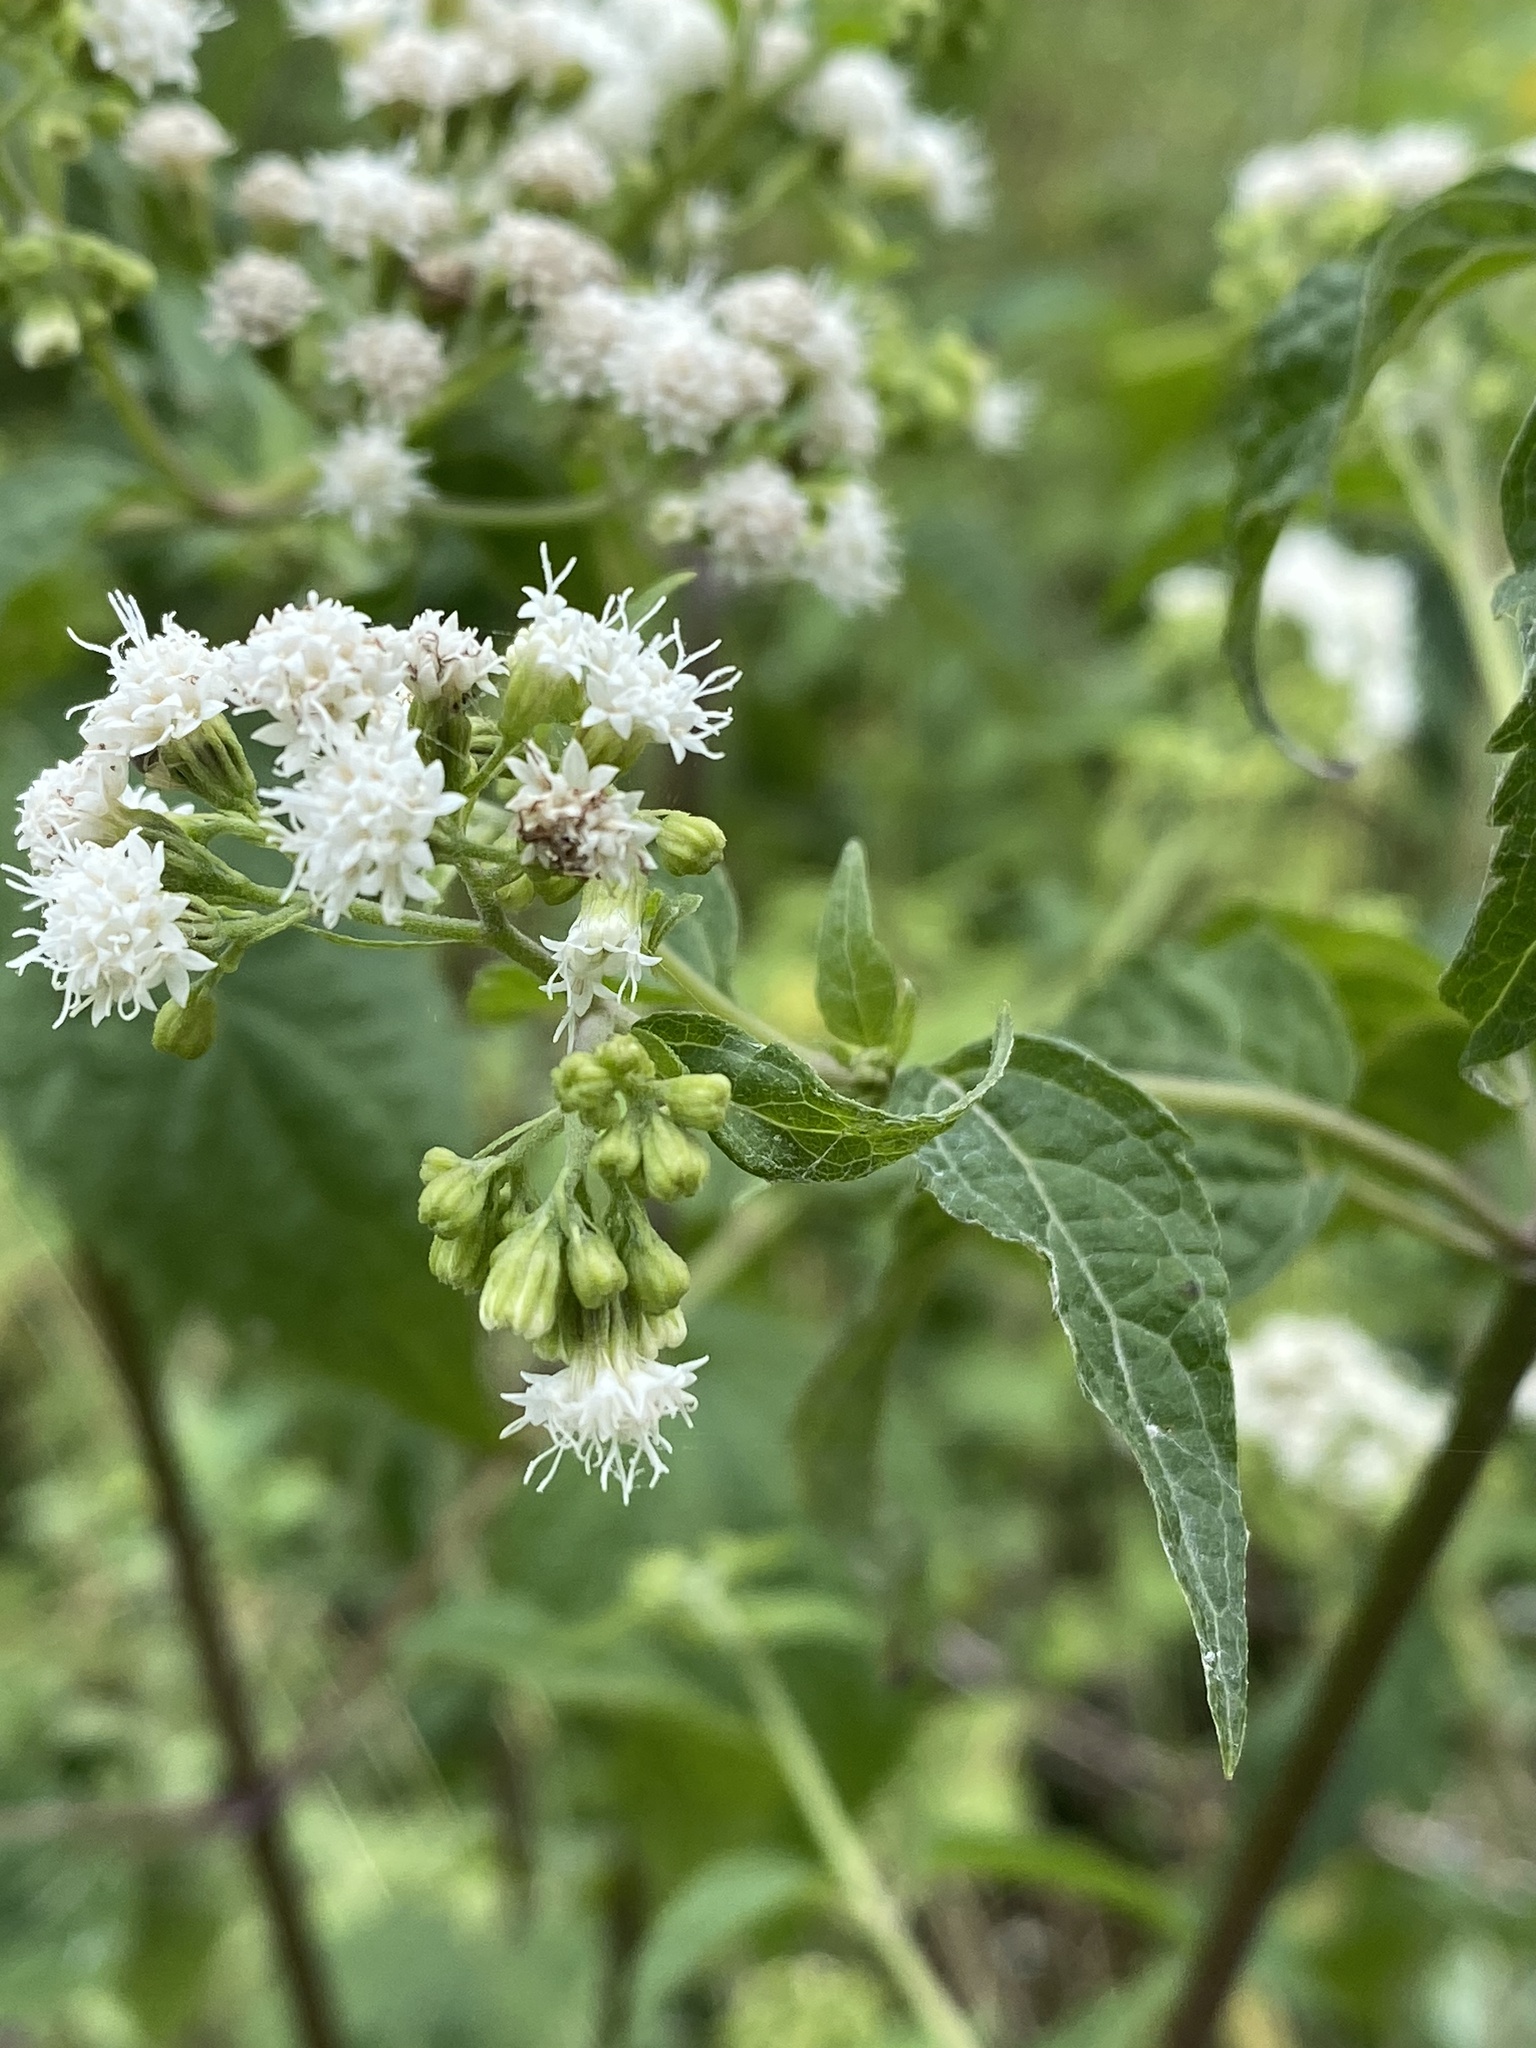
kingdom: Plantae
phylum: Tracheophyta
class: Magnoliopsida
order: Asterales
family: Asteraceae
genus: Ageratina
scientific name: Ageratina altissima
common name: White snakeroot
